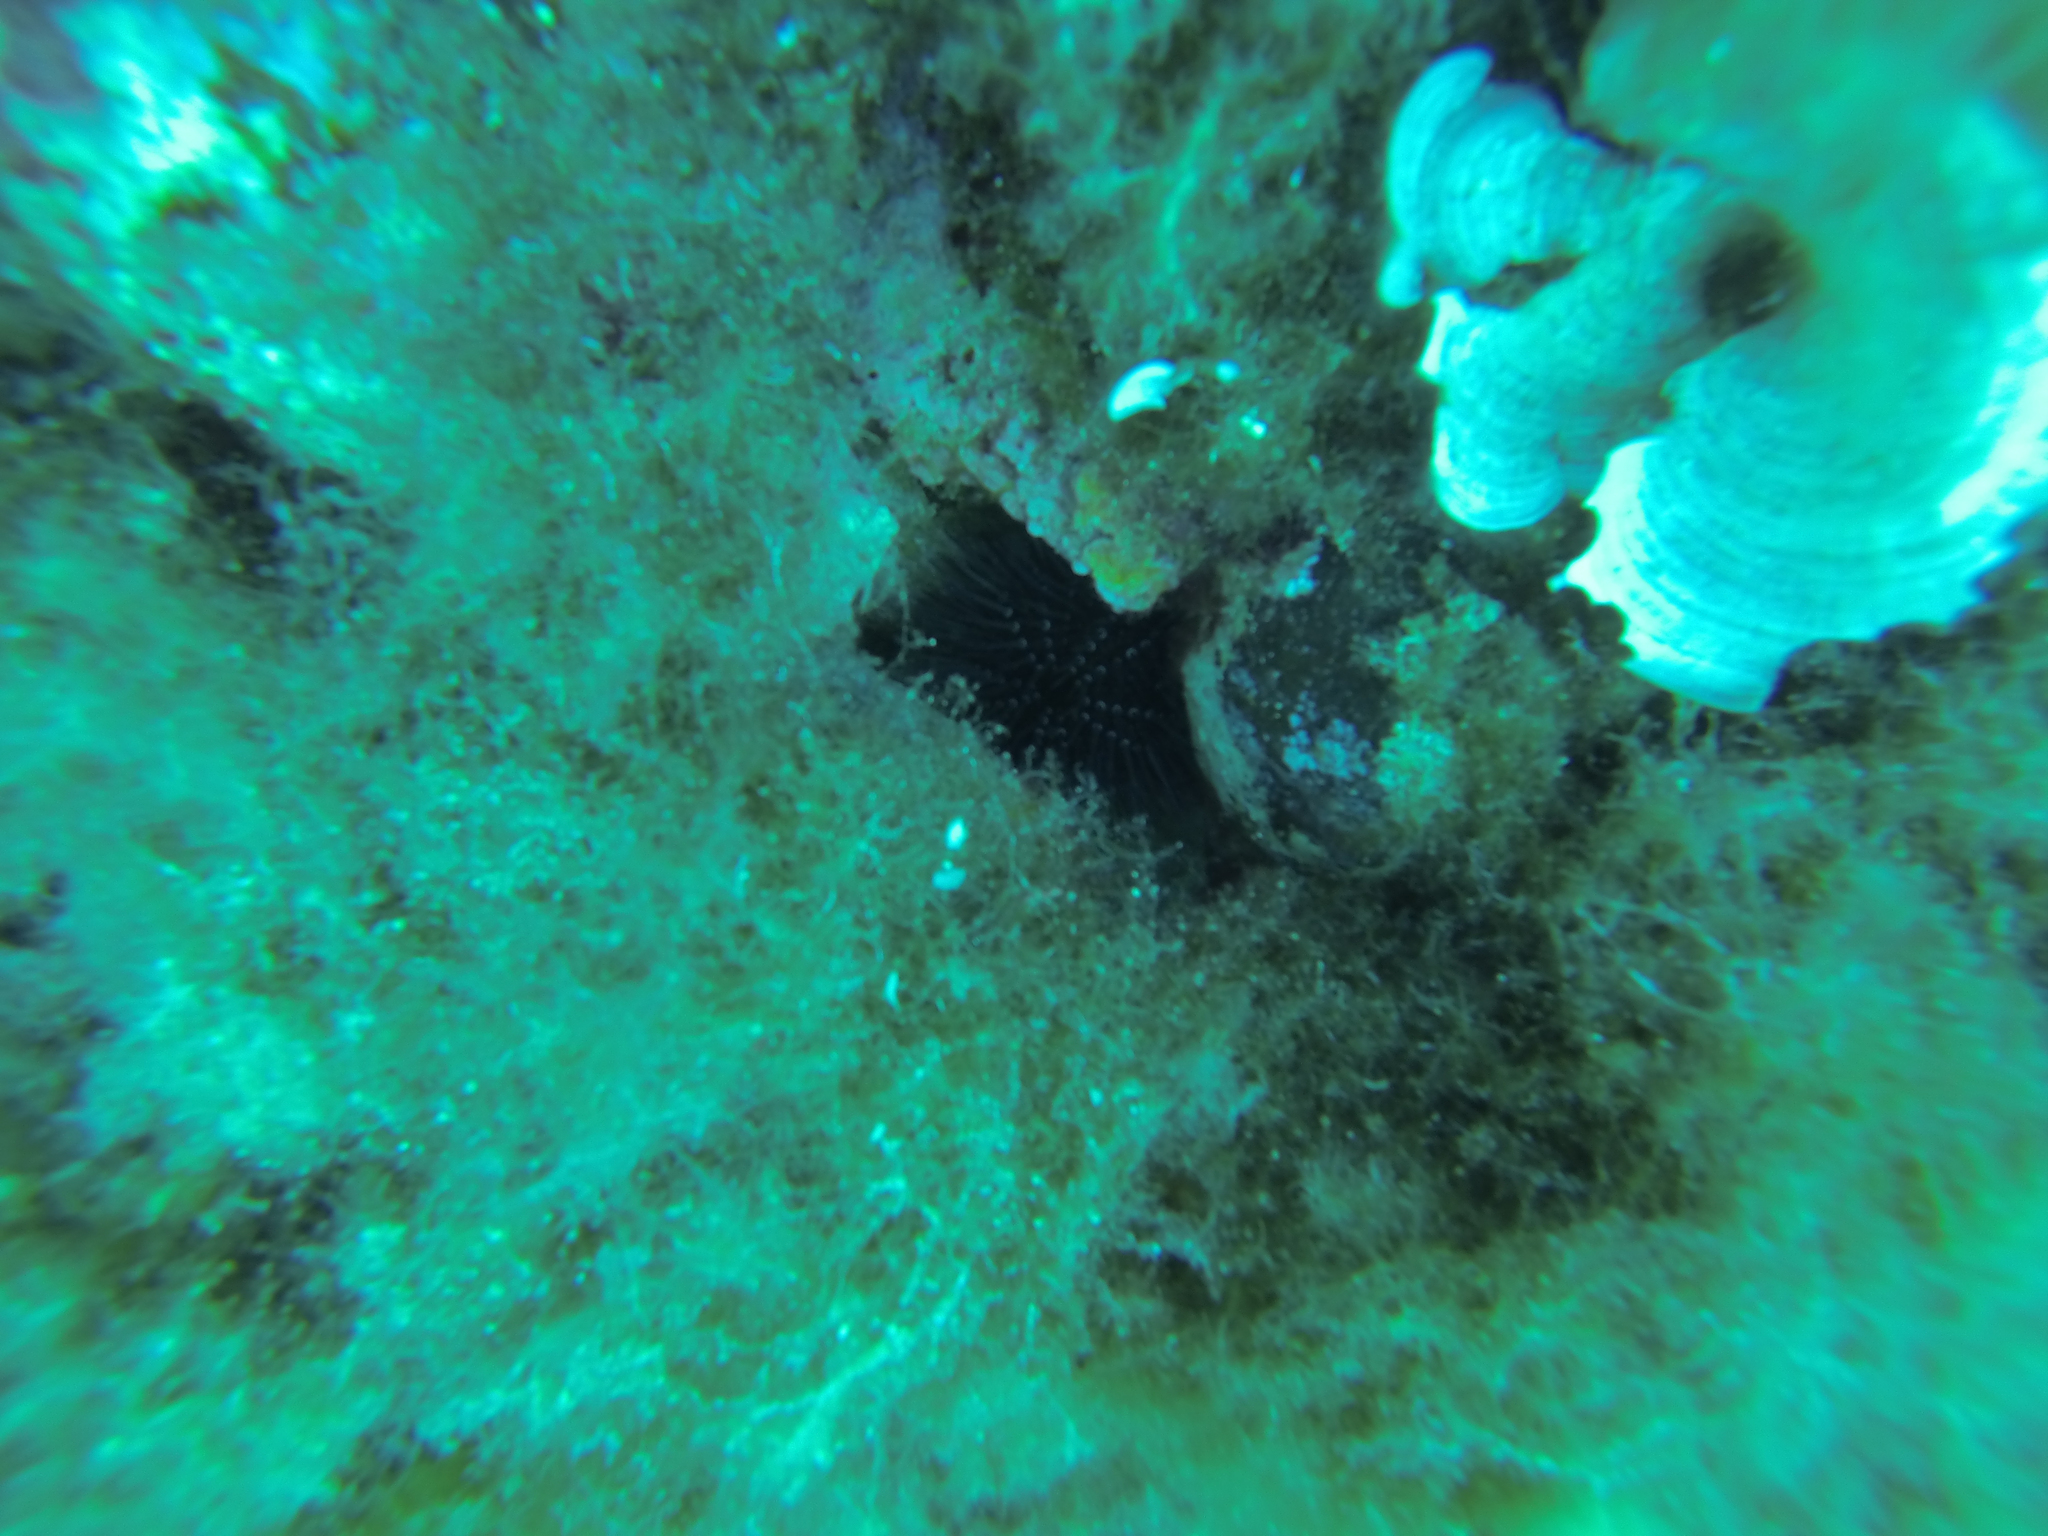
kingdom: Animalia
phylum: Echinodermata
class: Echinoidea
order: Camarodonta
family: Parechinidae
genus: Paracentrotus
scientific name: Paracentrotus lividus
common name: Purple sea urchin
